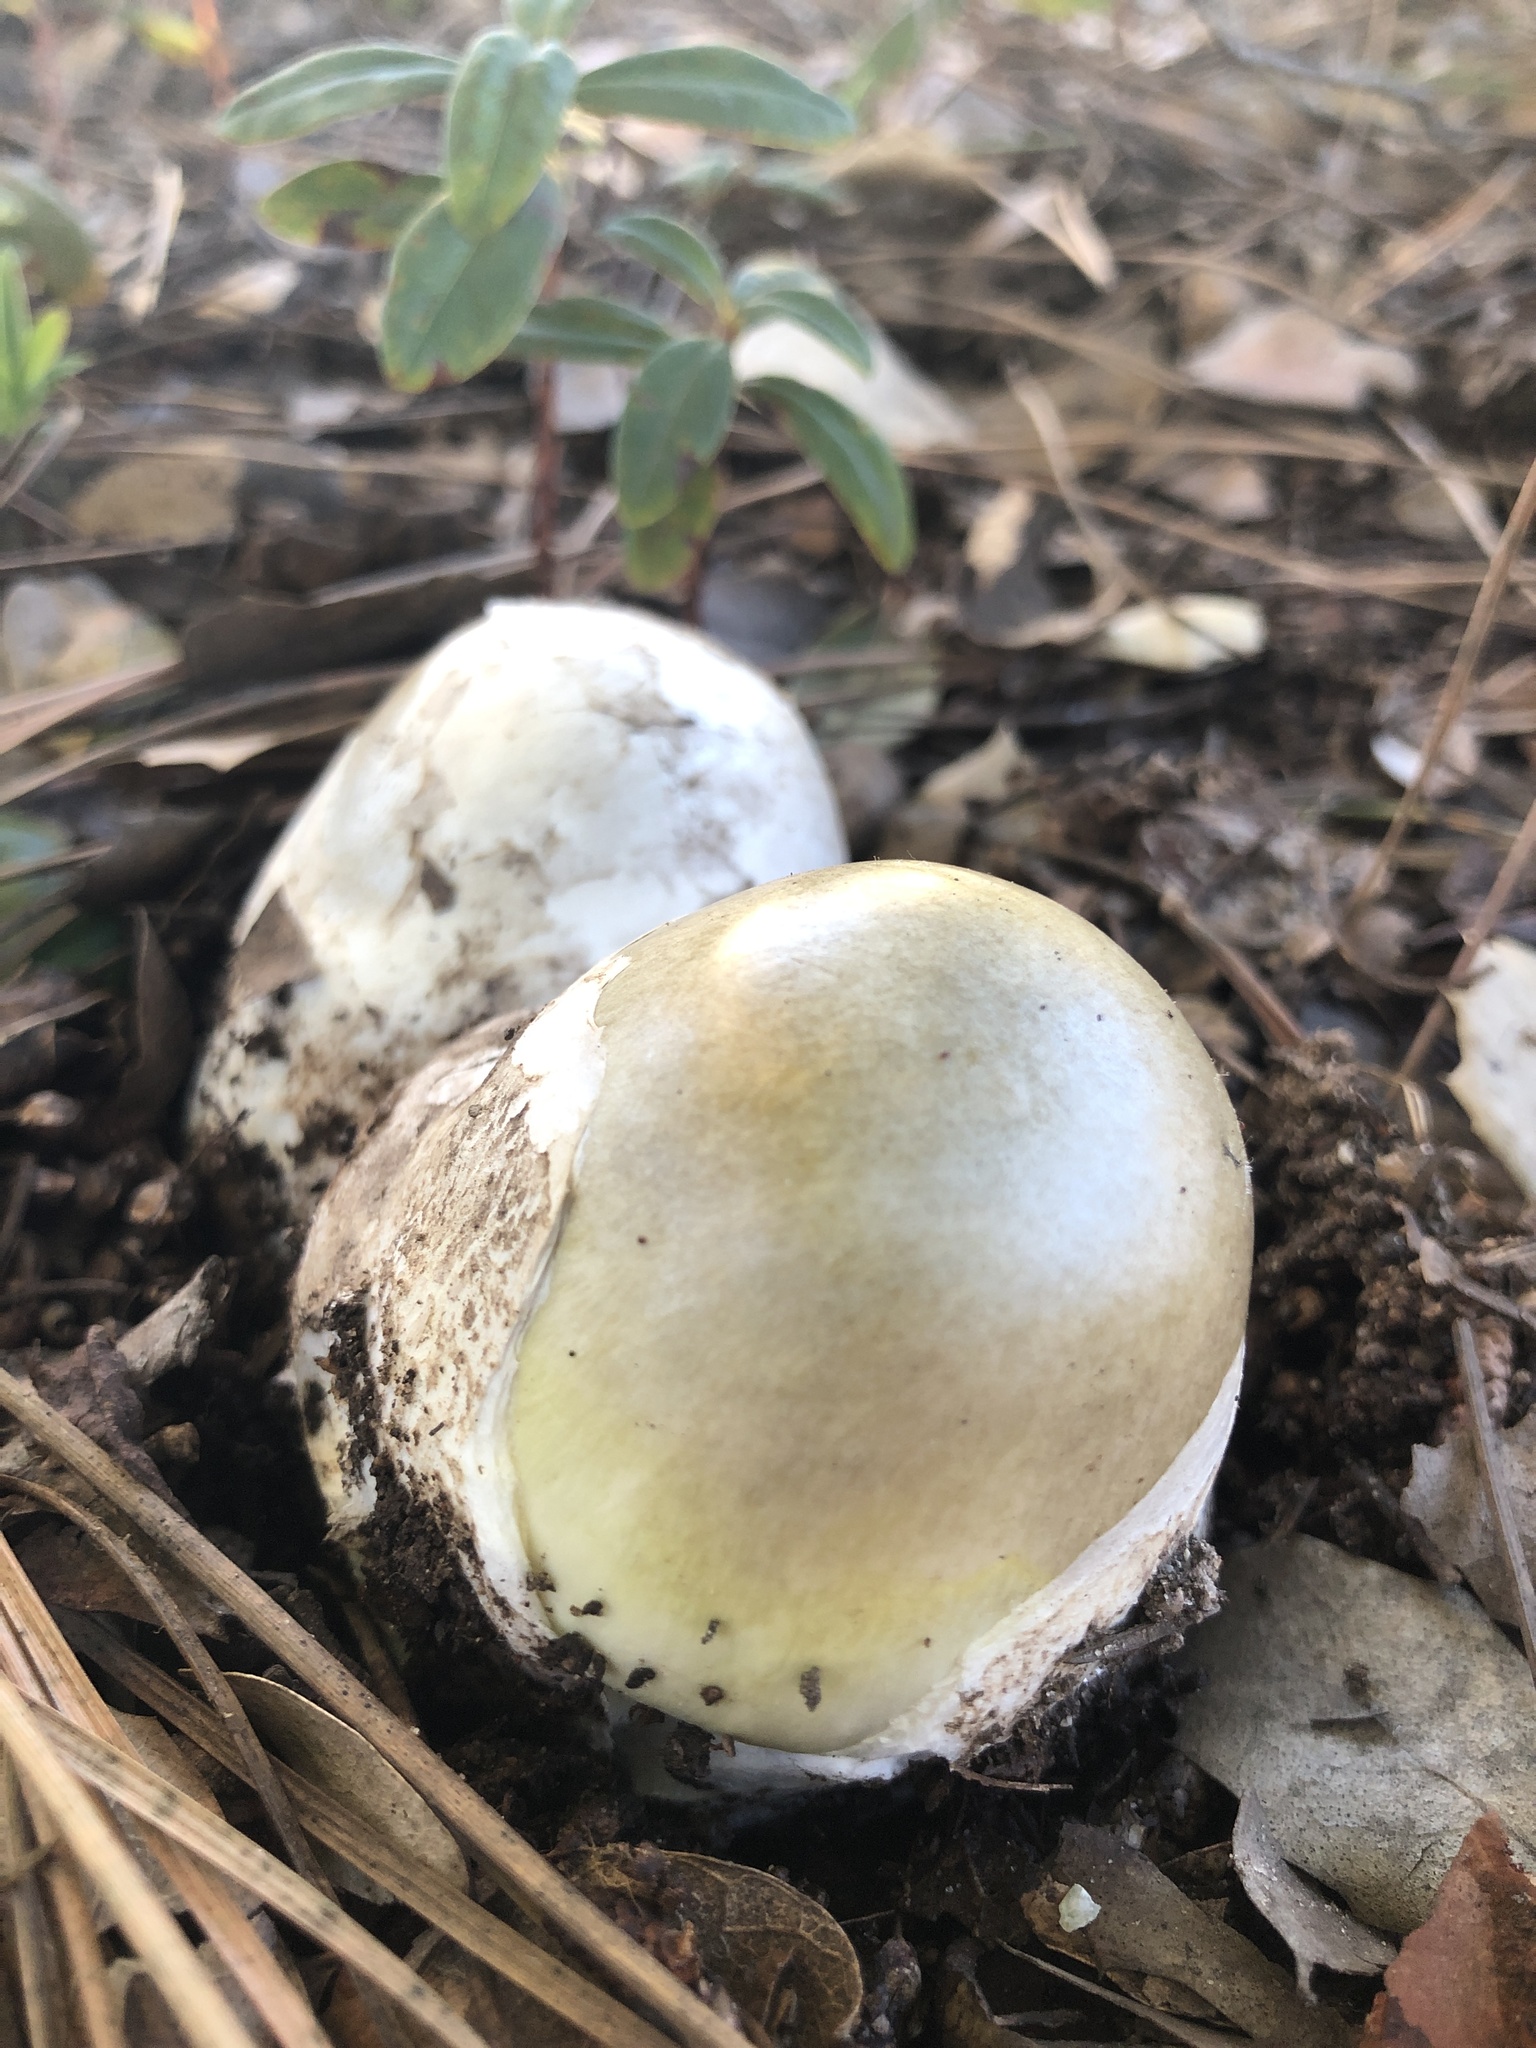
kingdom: Fungi
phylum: Basidiomycota
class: Agaricomycetes
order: Agaricales
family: Amanitaceae
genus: Amanita
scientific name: Amanita phalloides
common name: Death cap
